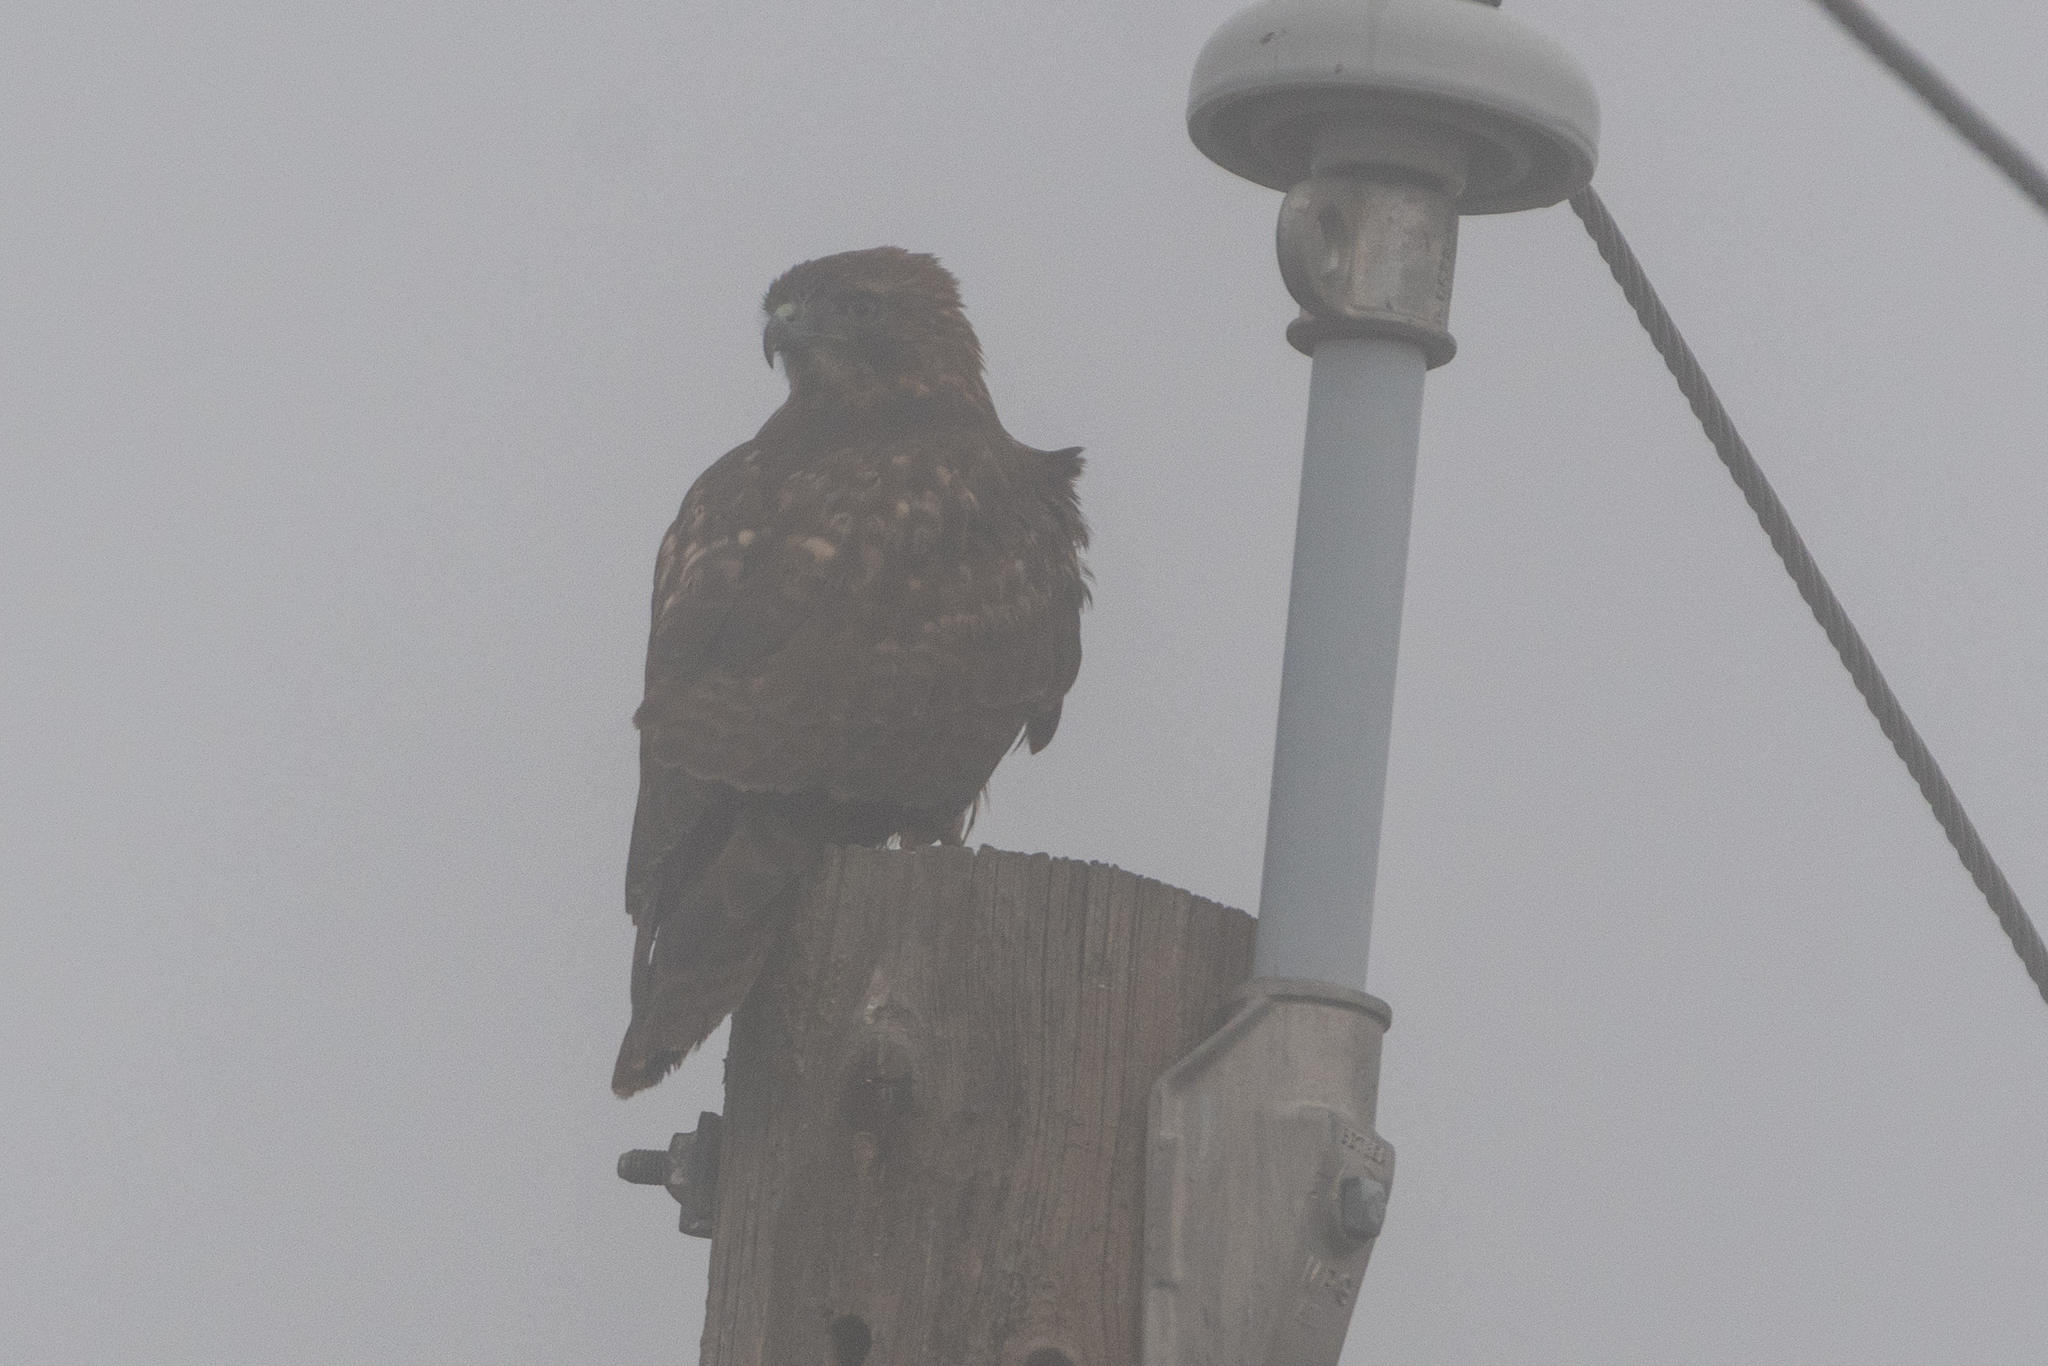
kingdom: Animalia
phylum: Chordata
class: Aves
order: Accipitriformes
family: Accipitridae
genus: Buteo
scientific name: Buteo jamaicensis
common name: Red-tailed hawk
